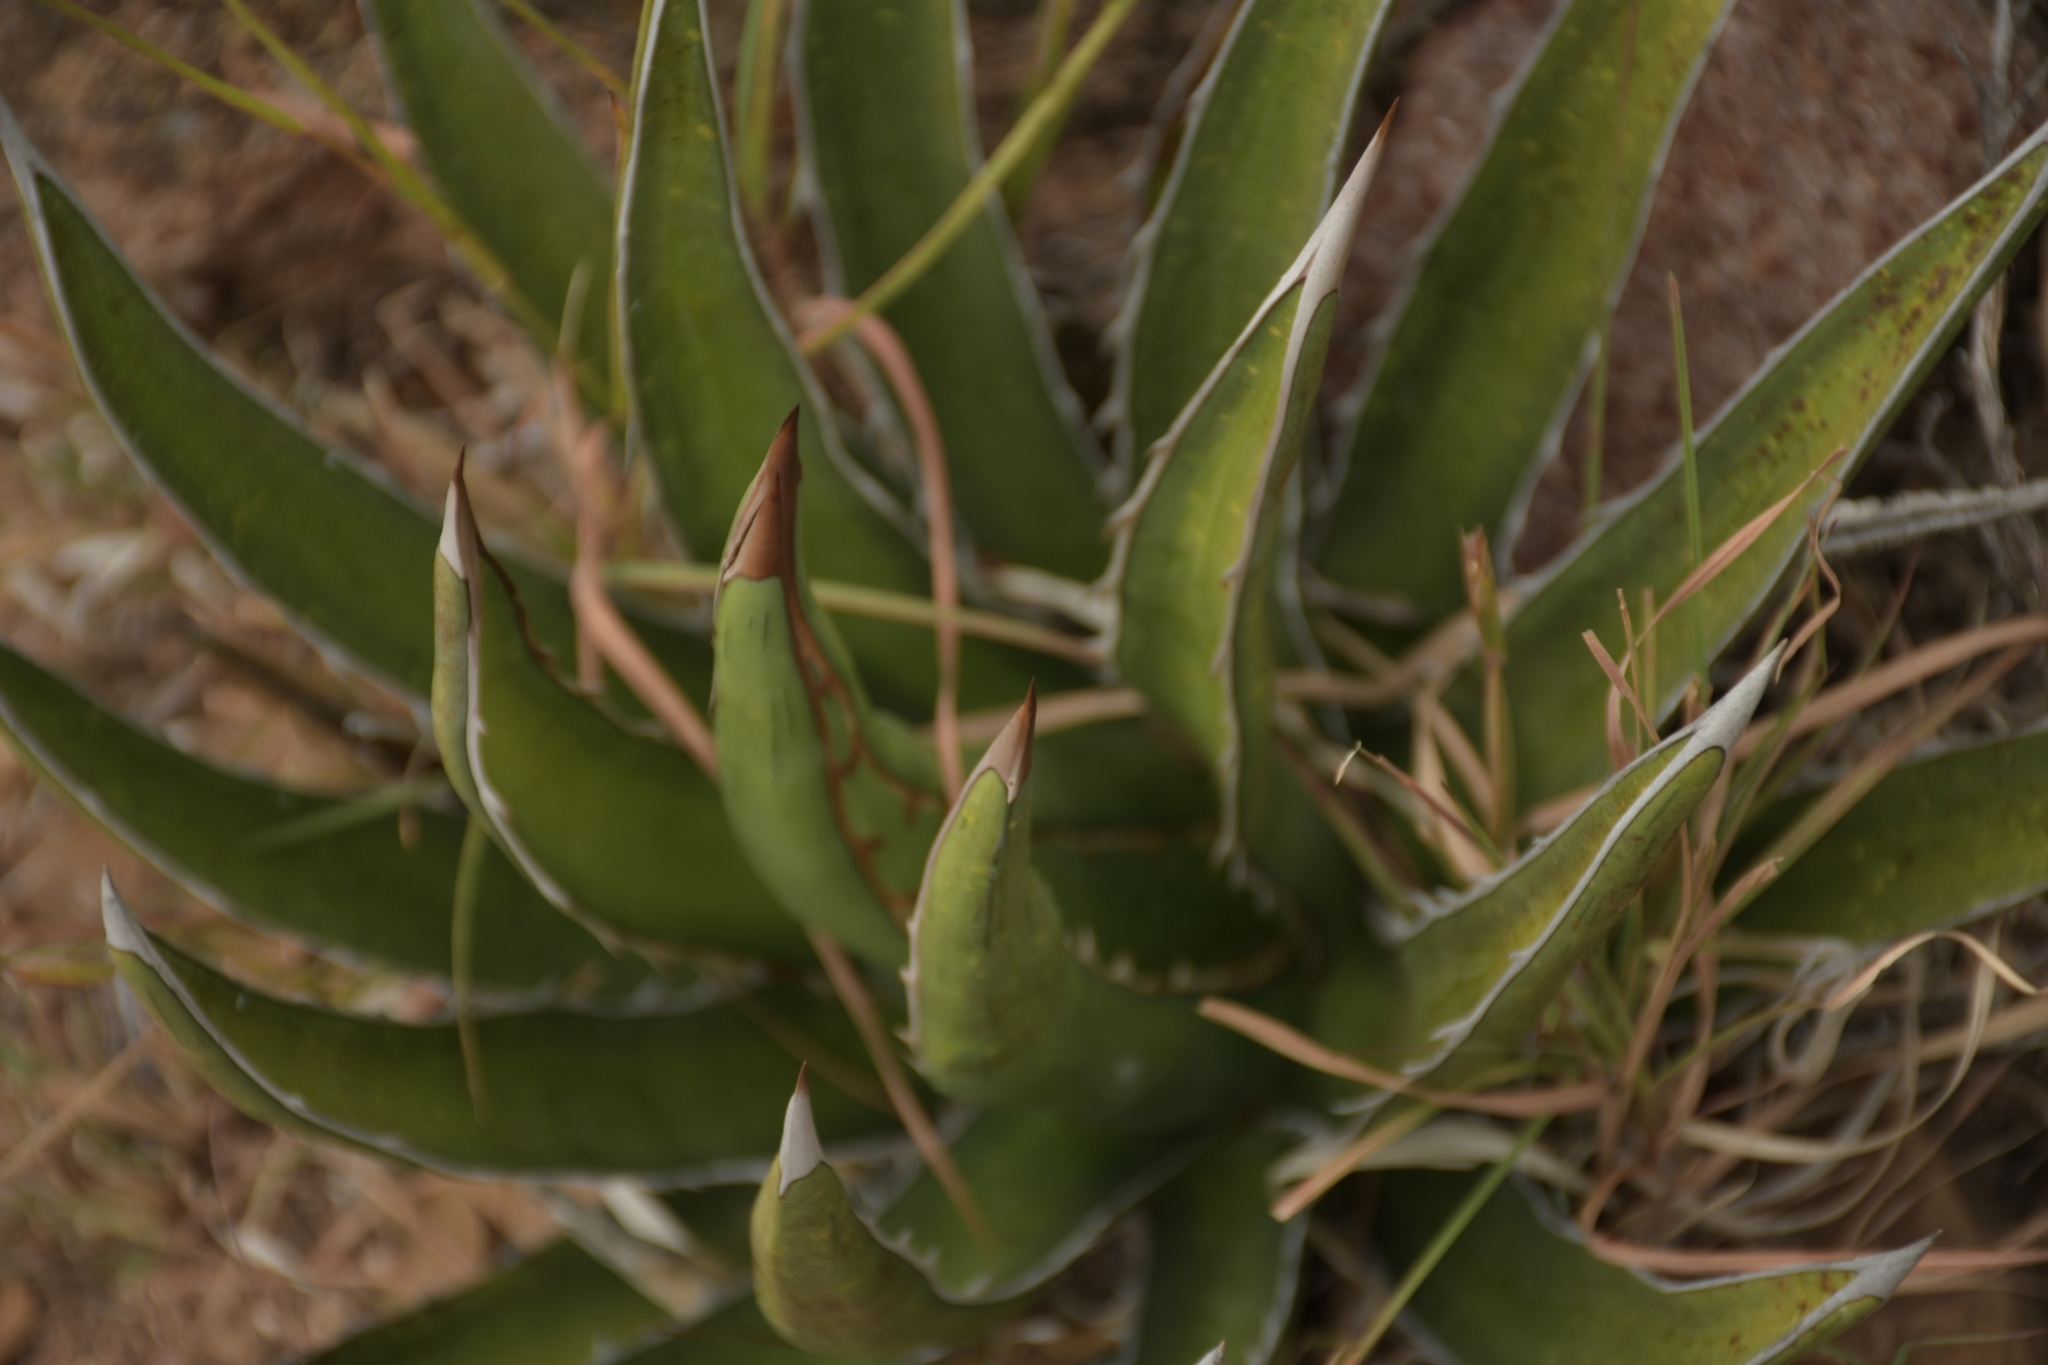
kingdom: Plantae
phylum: Tracheophyta
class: Liliopsida
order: Asparagales
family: Asparagaceae
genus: Agave
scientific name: Agave lechuguilla
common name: Lecheguilla agave
